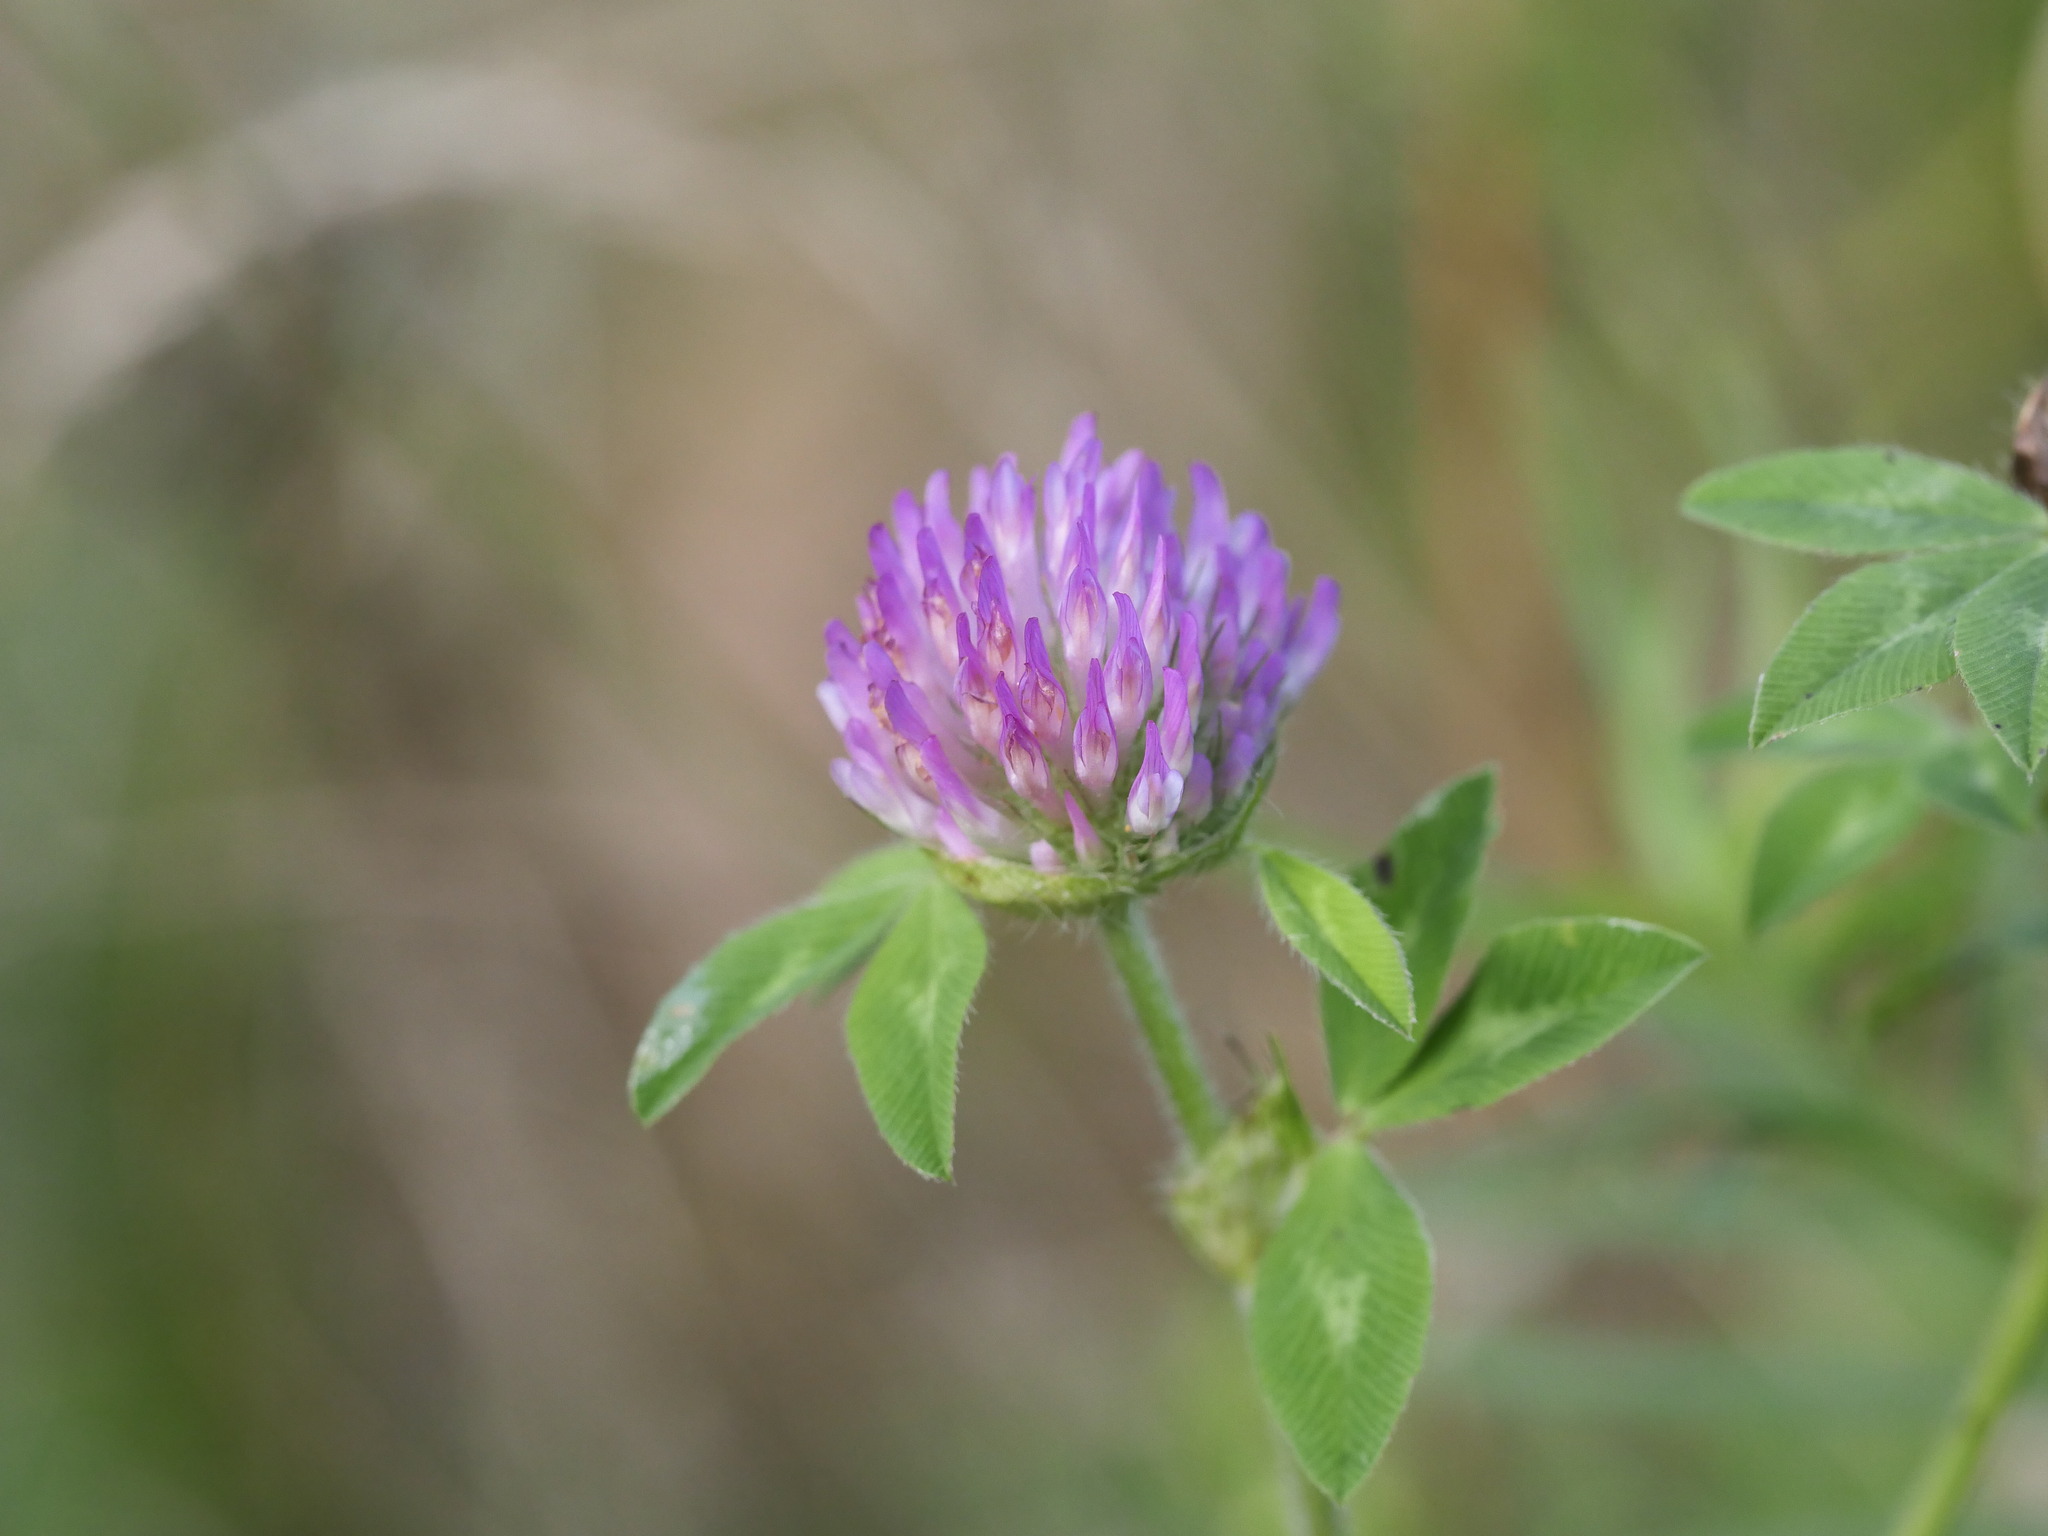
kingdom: Plantae
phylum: Tracheophyta
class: Magnoliopsida
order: Fabales
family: Fabaceae
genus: Trifolium
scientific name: Trifolium pratense
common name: Red clover
